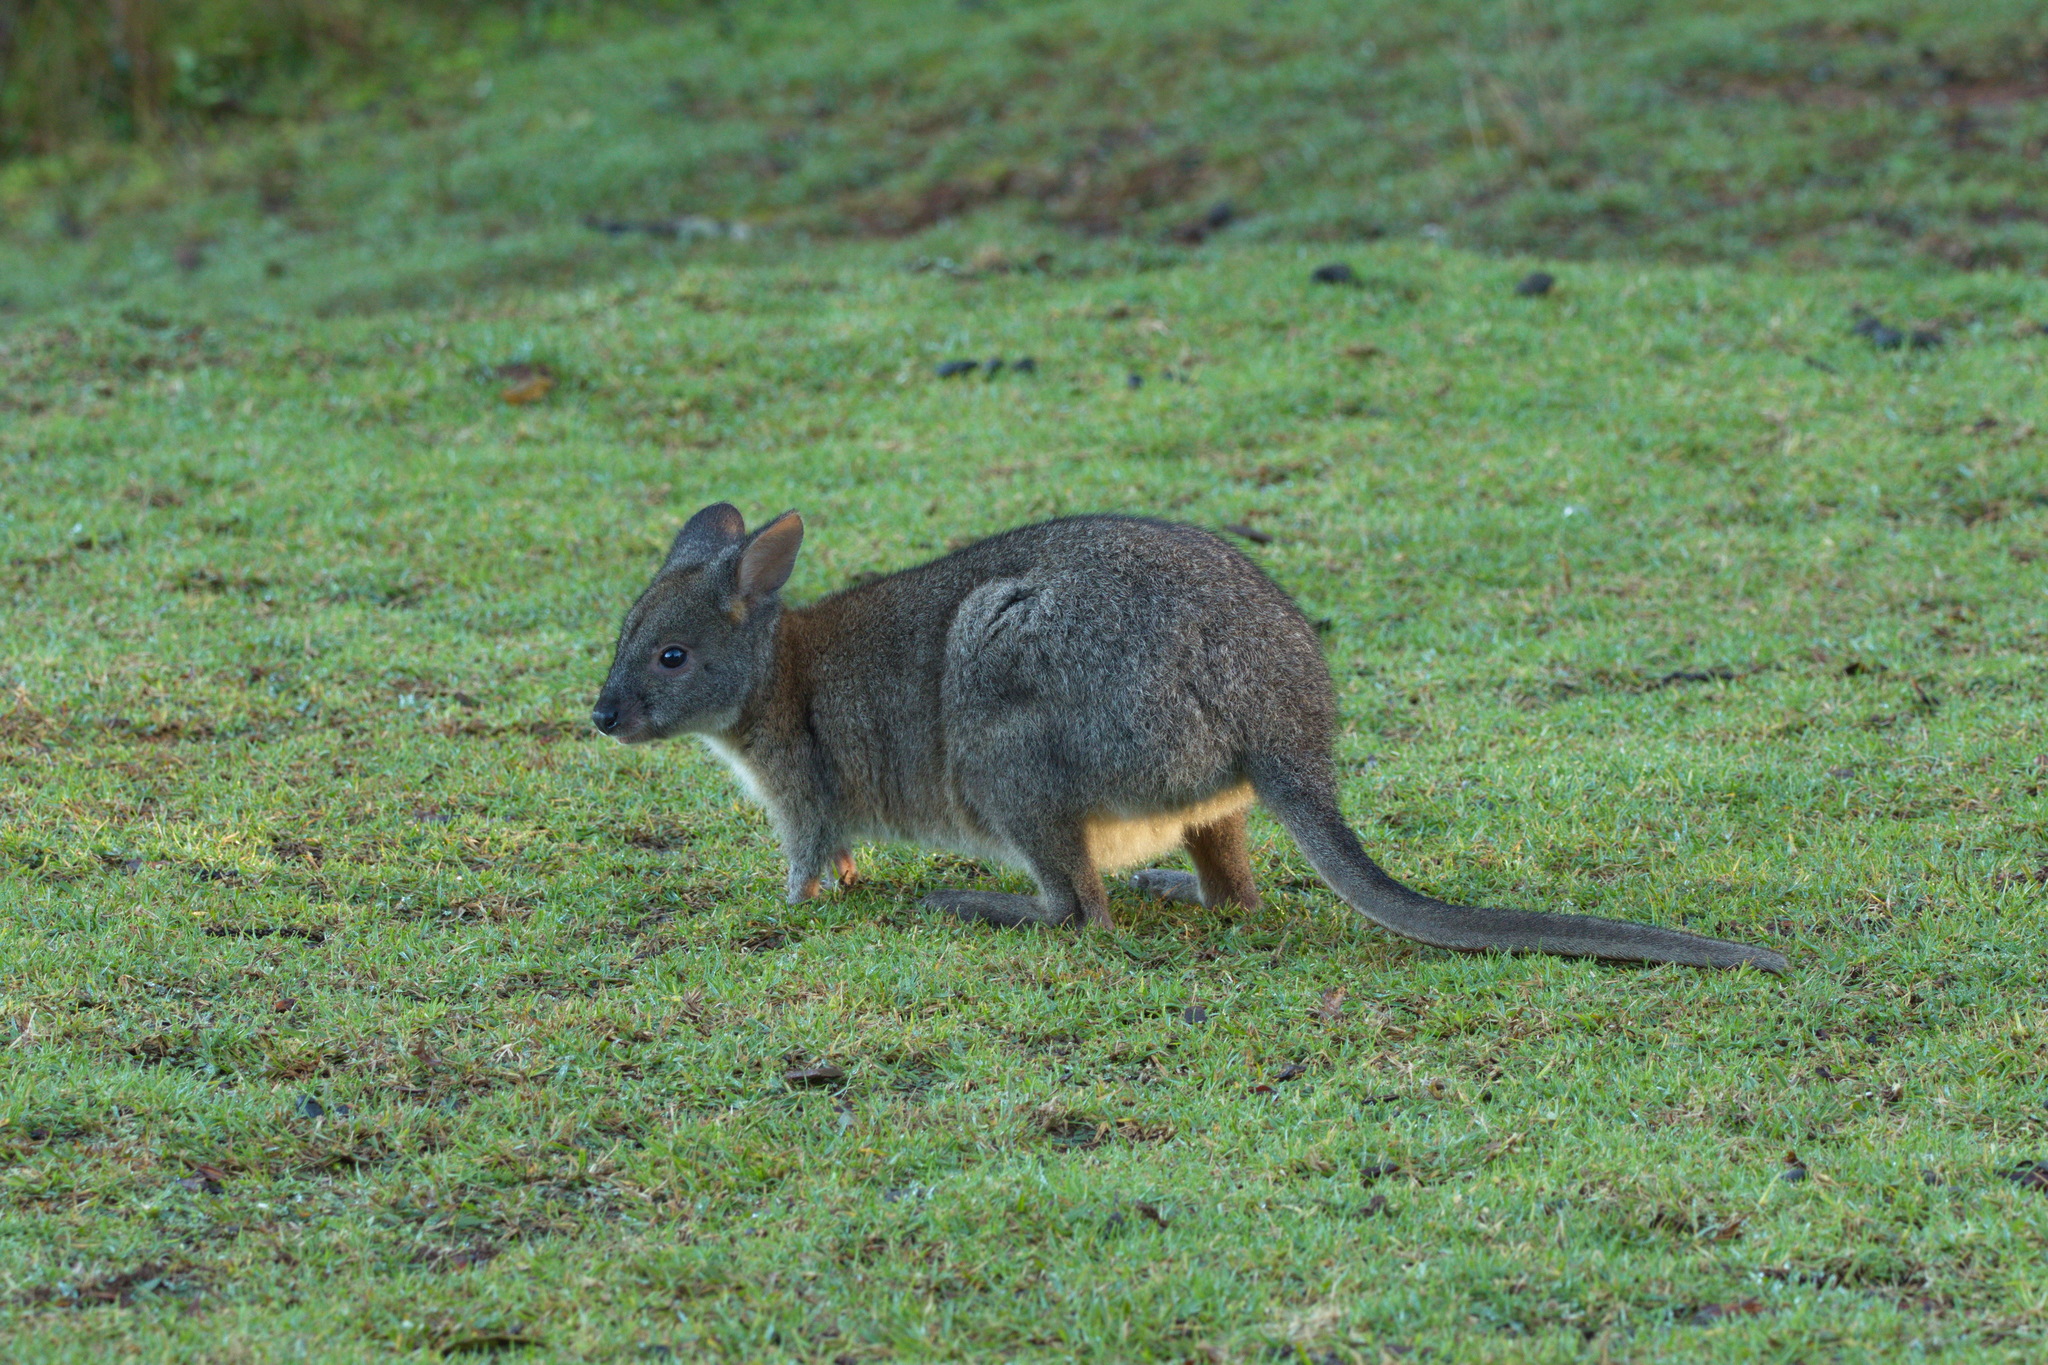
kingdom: Animalia
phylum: Chordata
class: Mammalia
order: Diprotodontia
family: Macropodidae
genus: Thylogale
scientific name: Thylogale thetis
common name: Red-necked pademelon
